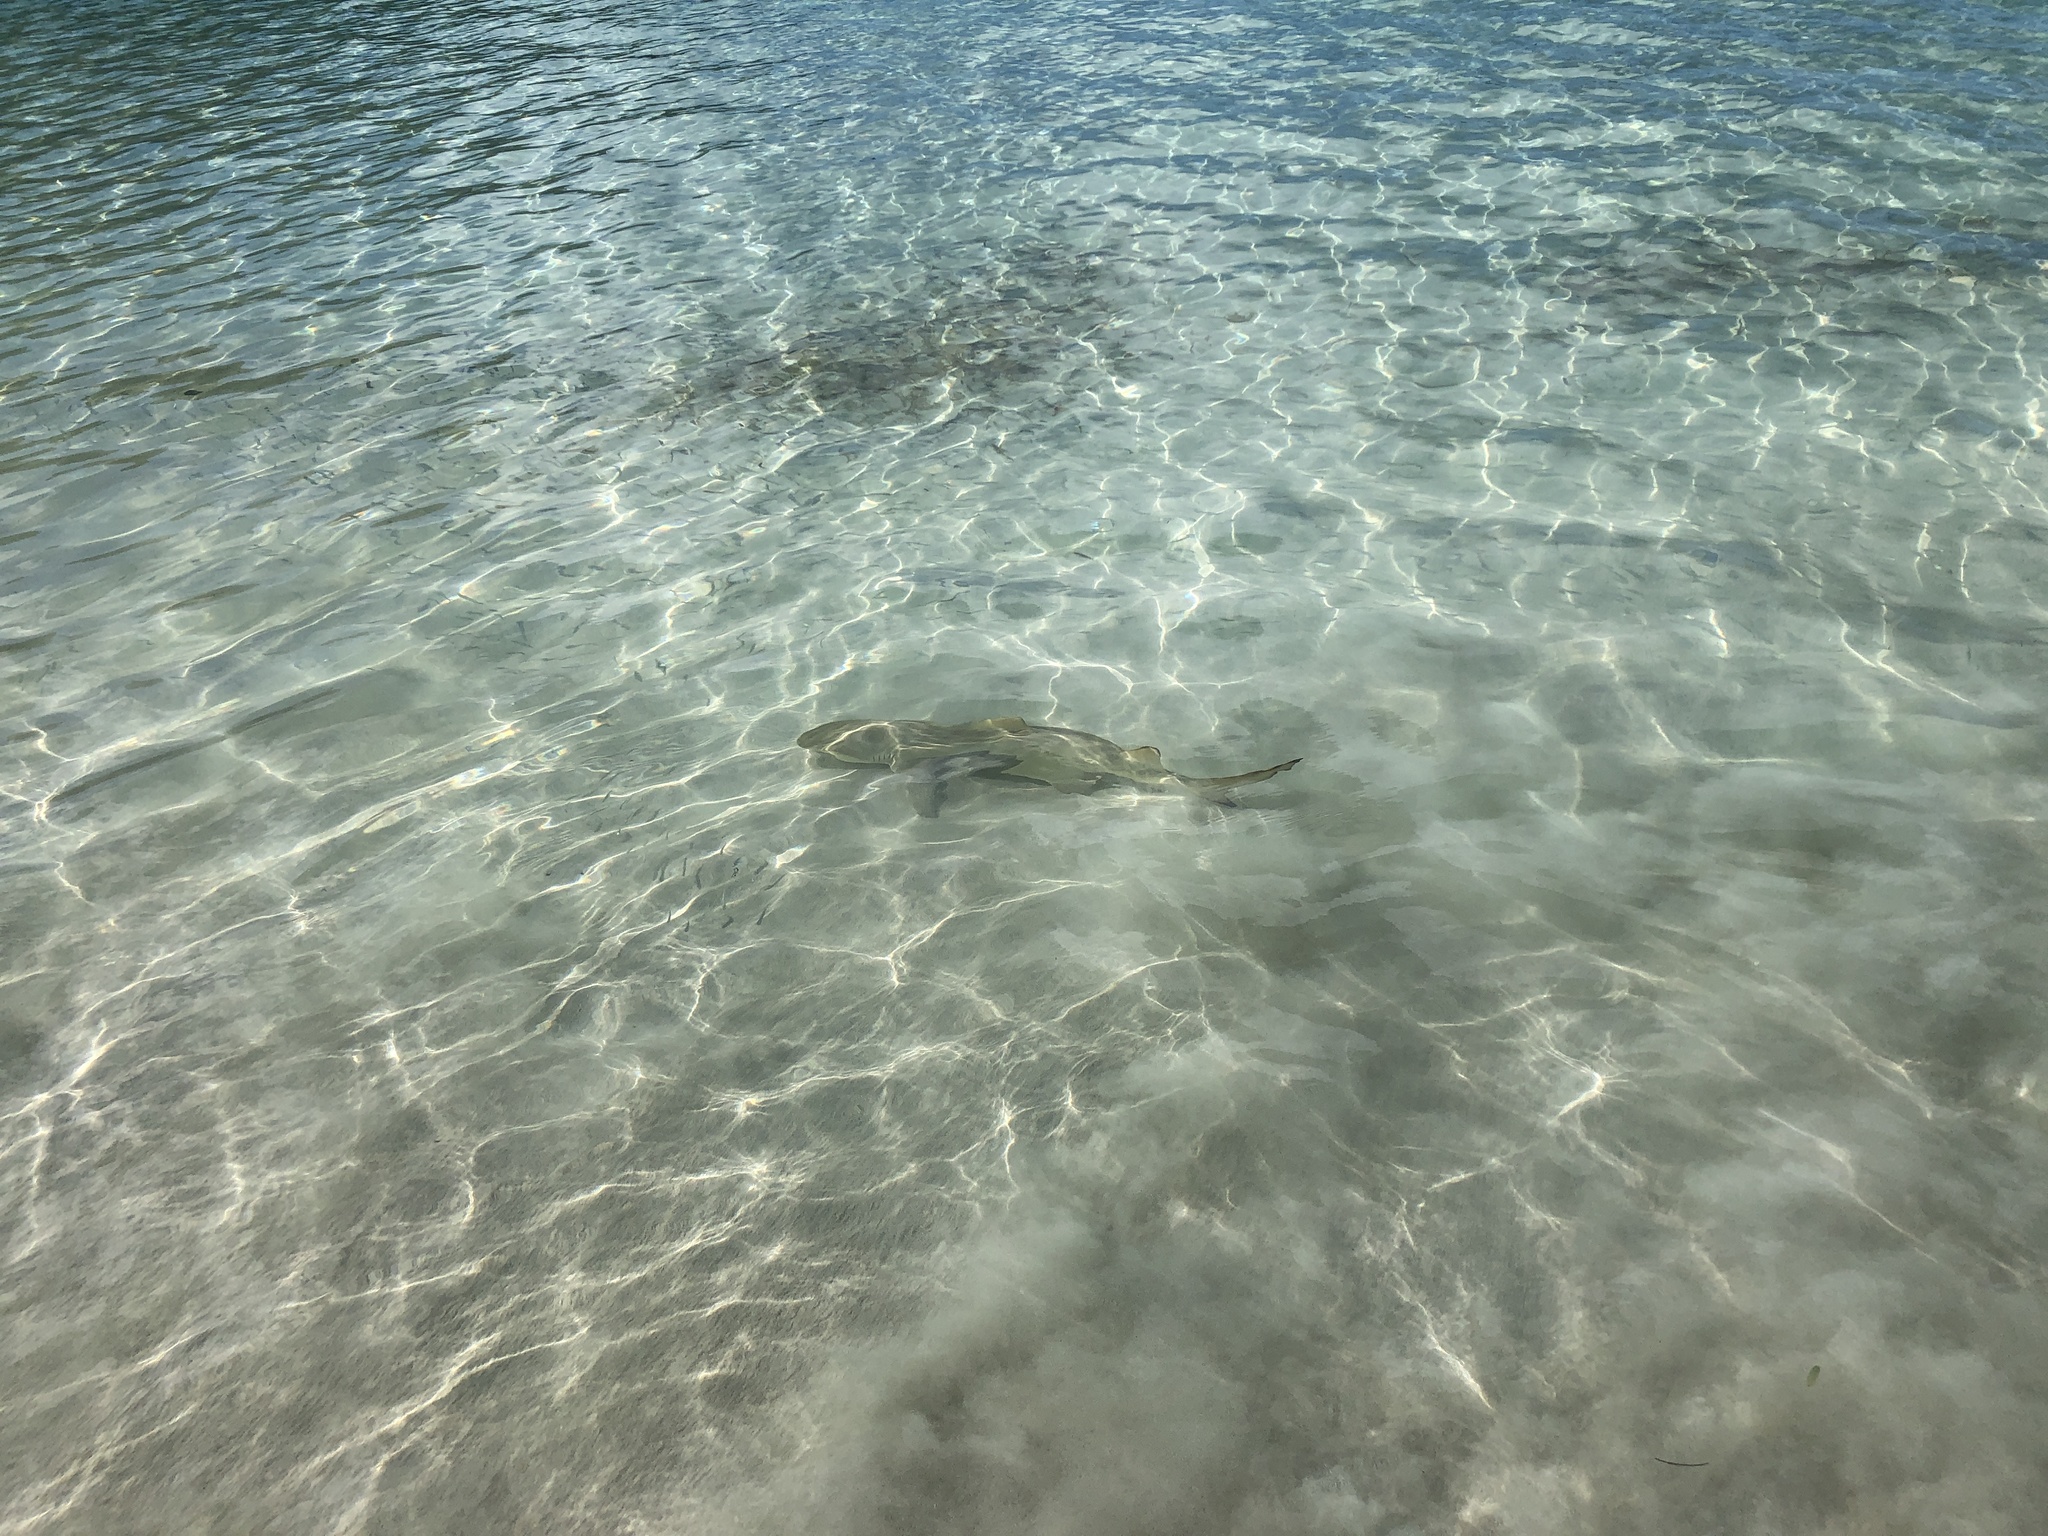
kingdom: Animalia
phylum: Chordata
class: Elasmobranchii
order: Carcharhiniformes
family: Carcharhinidae
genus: Negaprion
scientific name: Negaprion brevirostris
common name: Lemon shark
